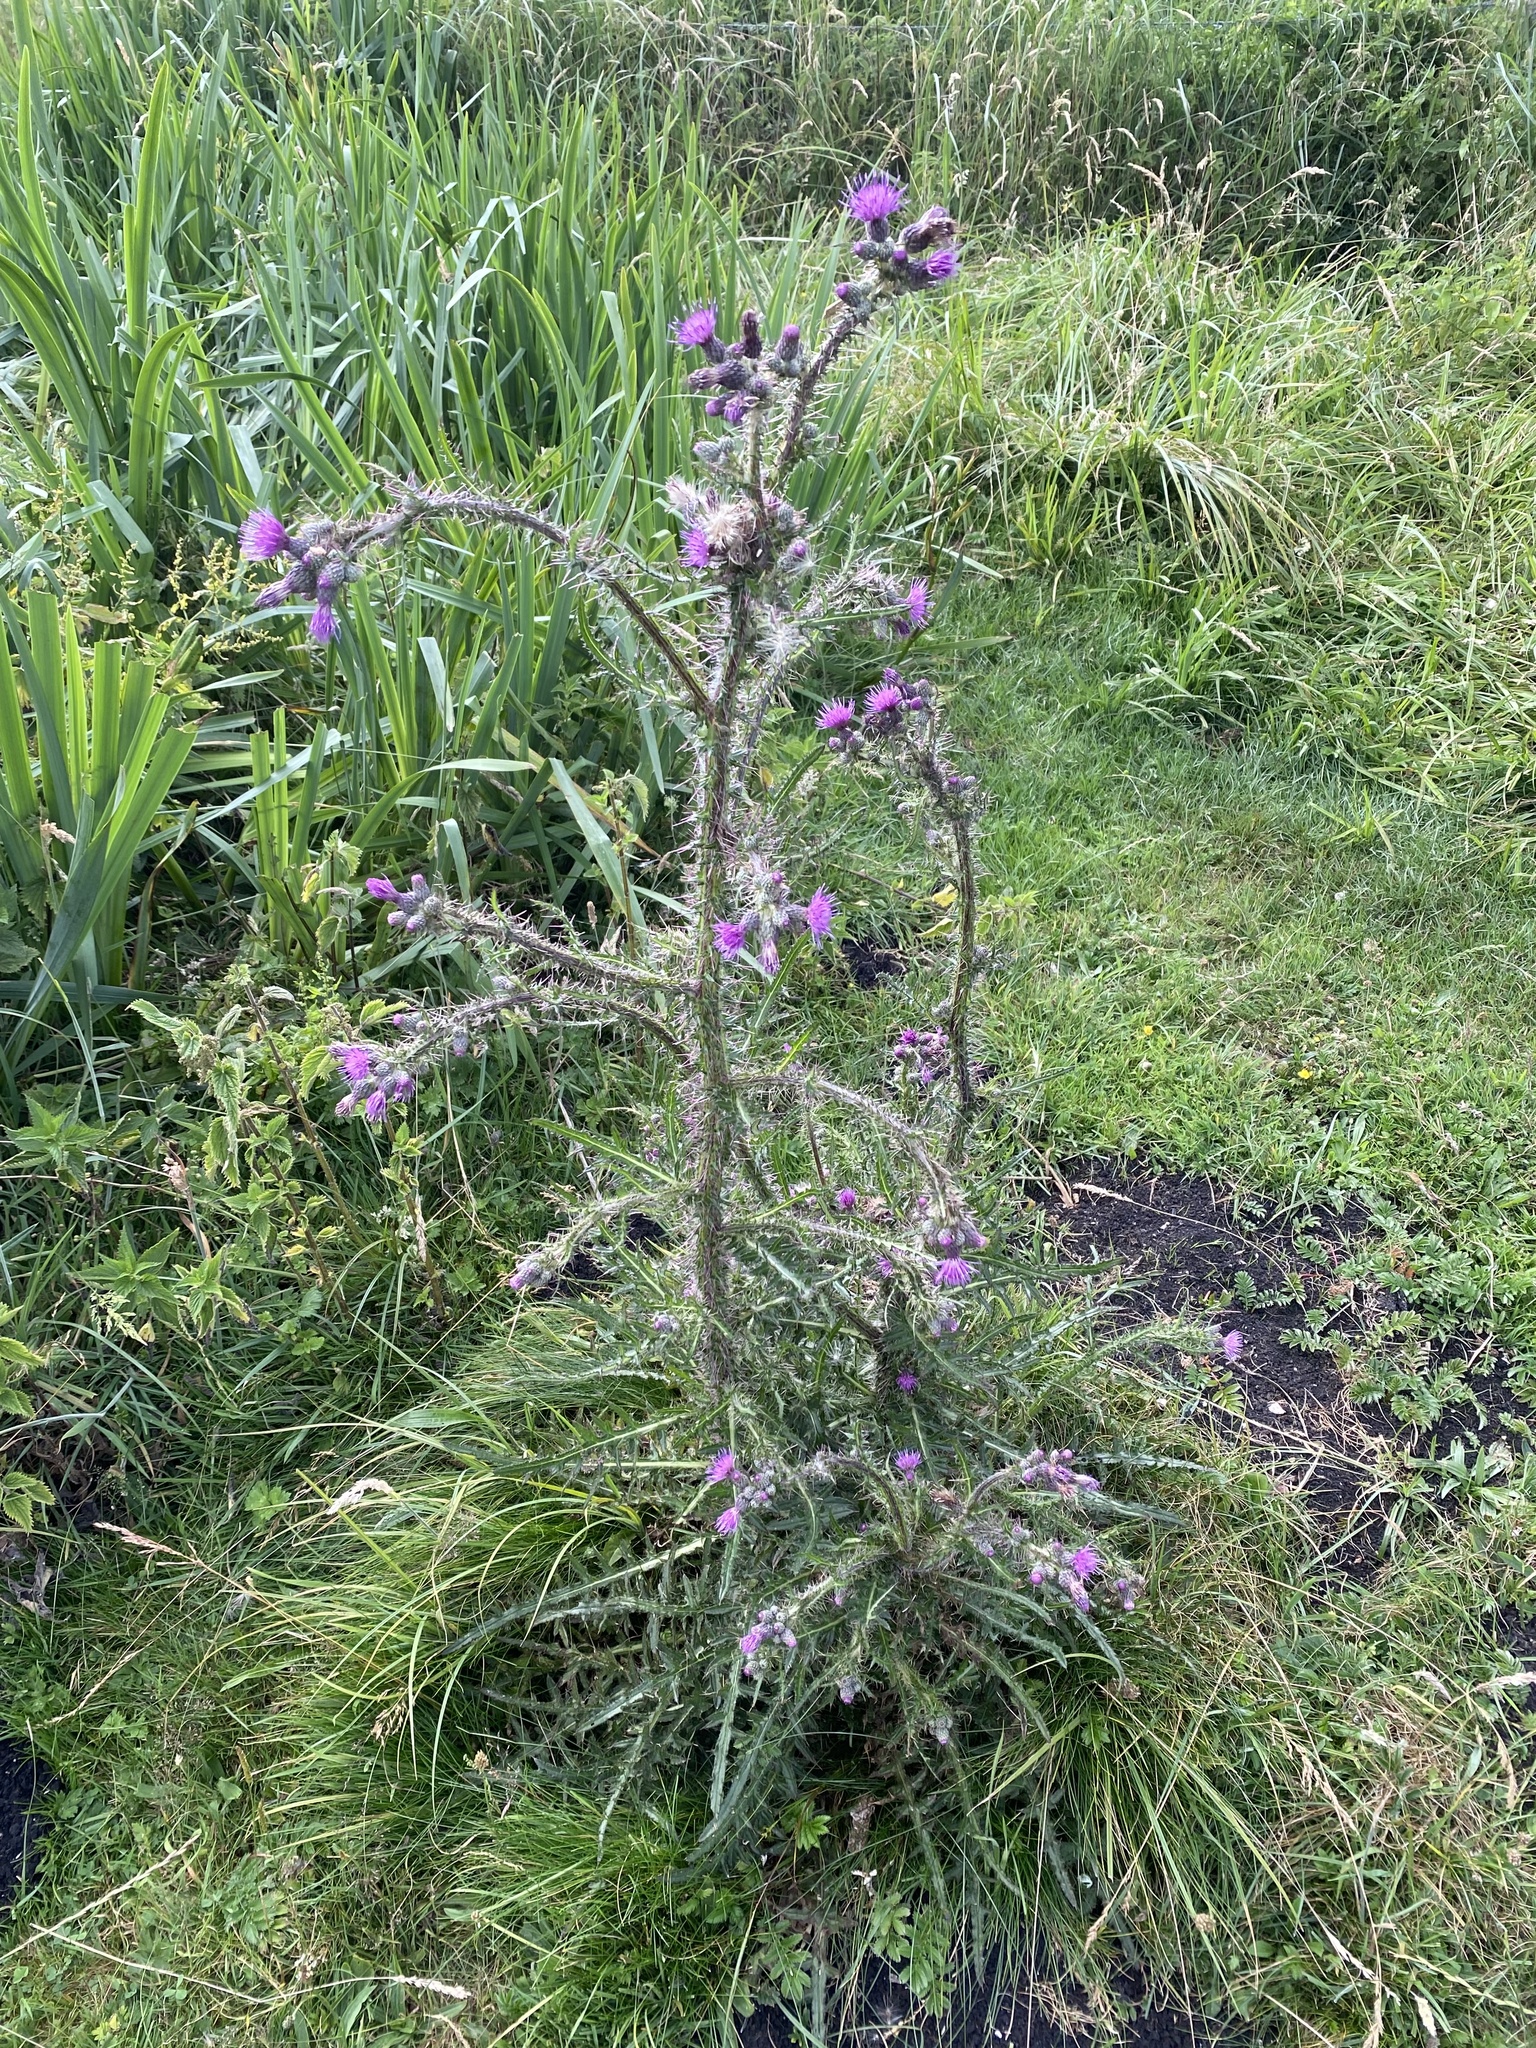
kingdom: Plantae
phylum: Tracheophyta
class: Magnoliopsida
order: Asterales
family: Asteraceae
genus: Cirsium
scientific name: Cirsium palustre
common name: Marsh thistle
